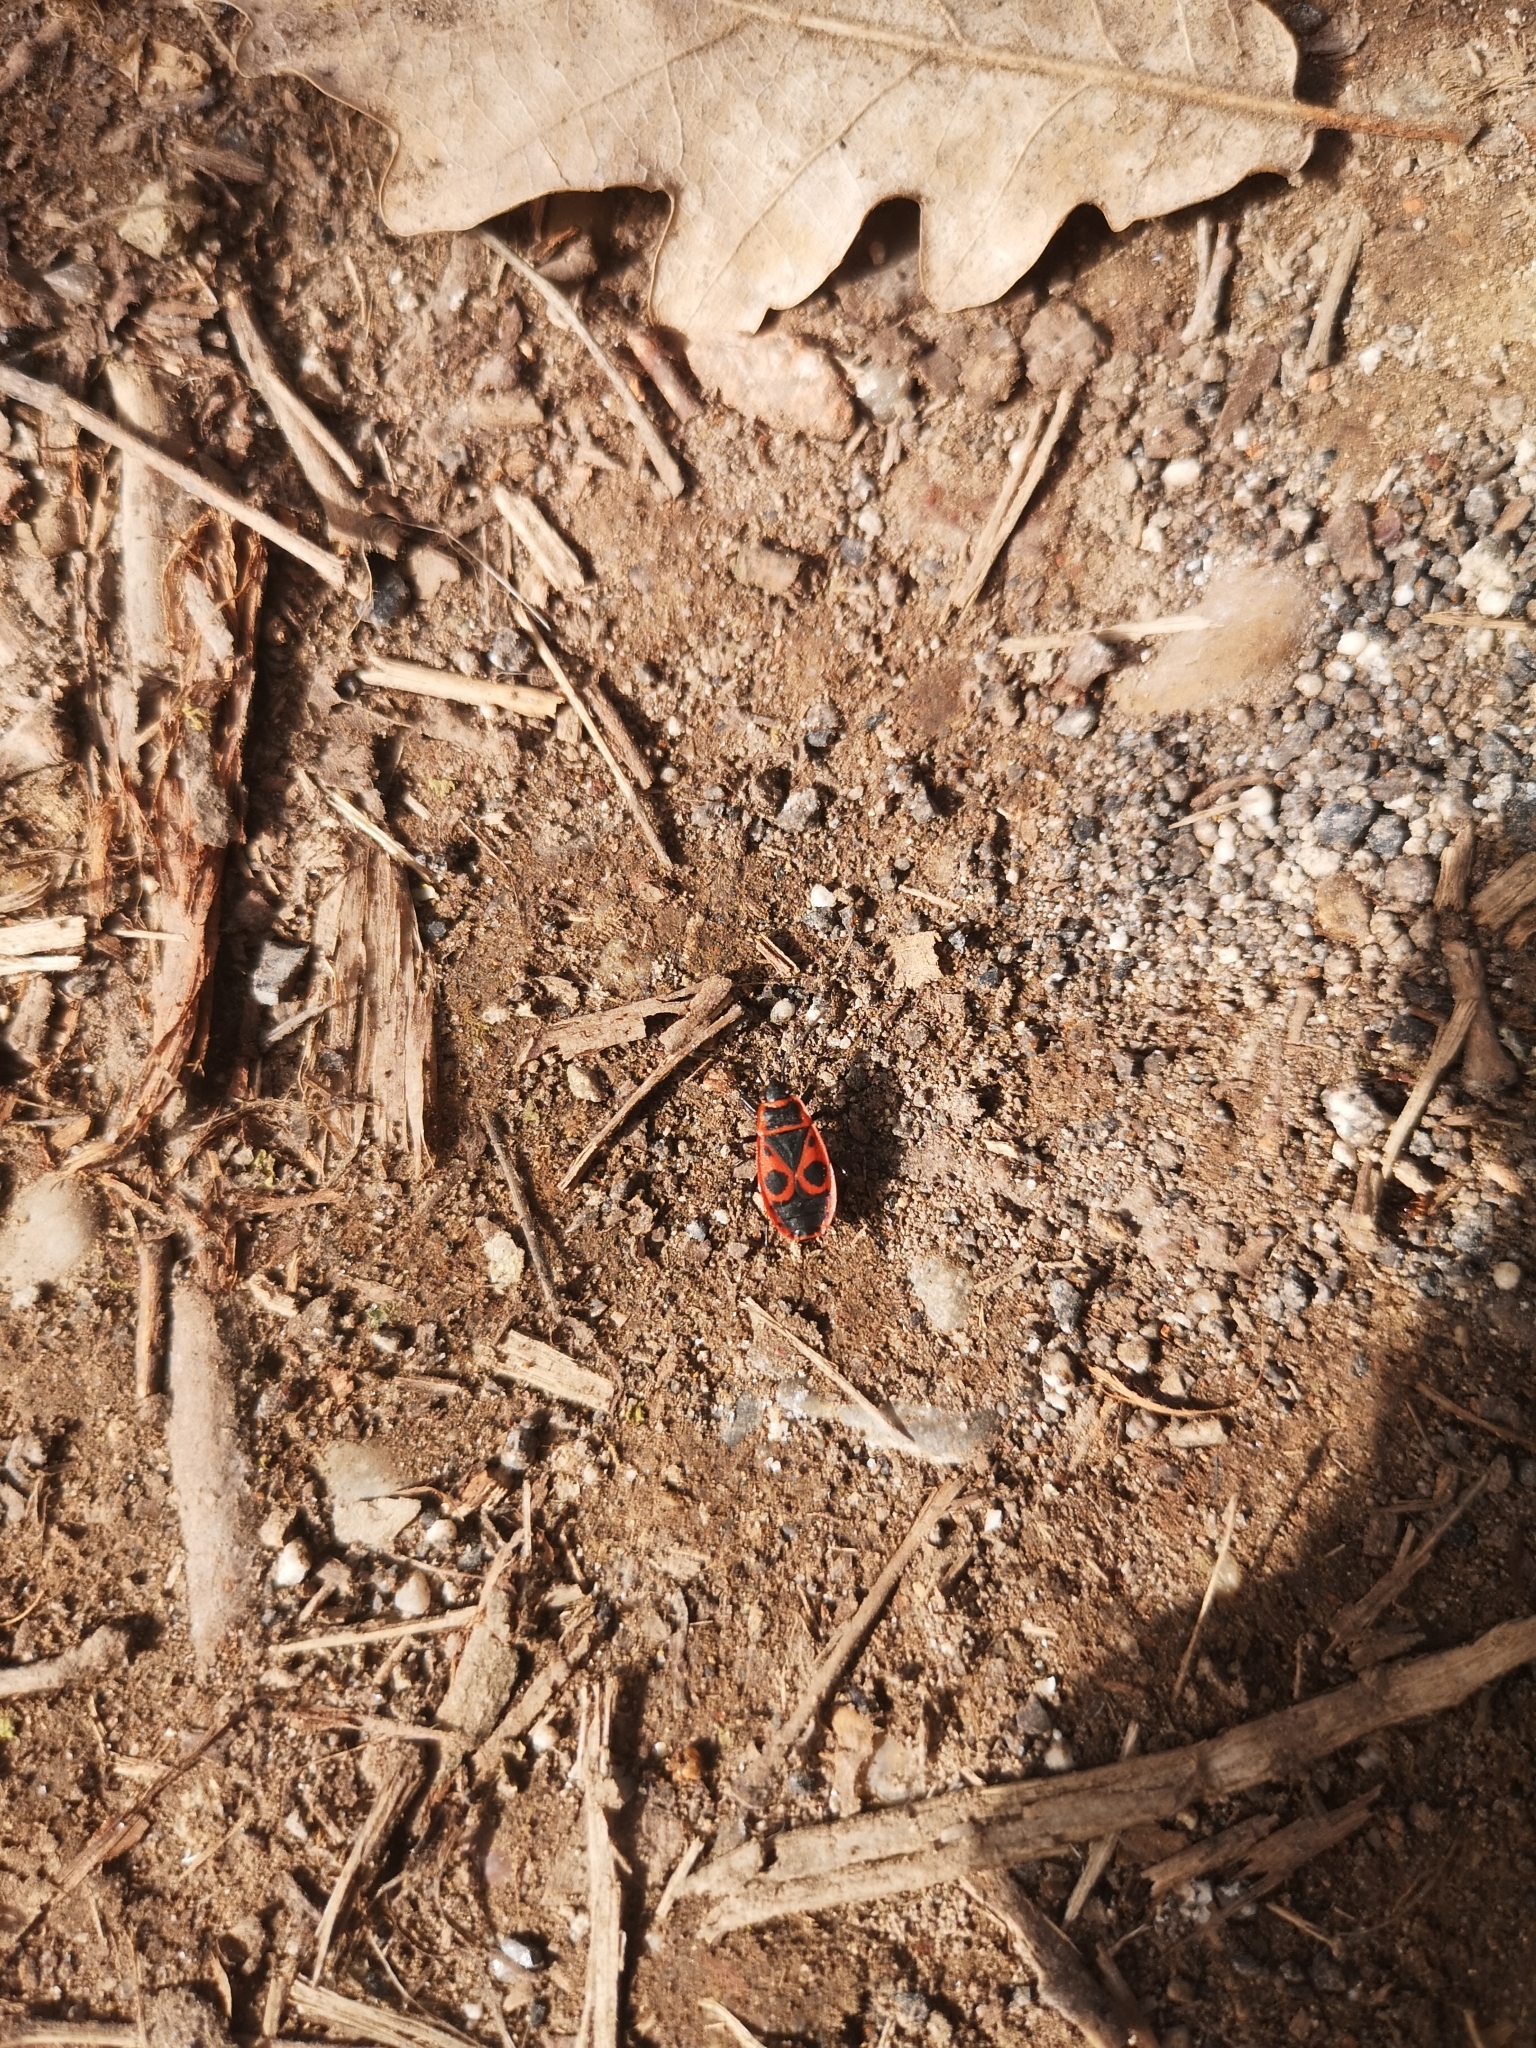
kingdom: Animalia
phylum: Arthropoda
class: Insecta
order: Hemiptera
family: Pyrrhocoridae
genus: Pyrrhocoris
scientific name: Pyrrhocoris apterus
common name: Firebug
